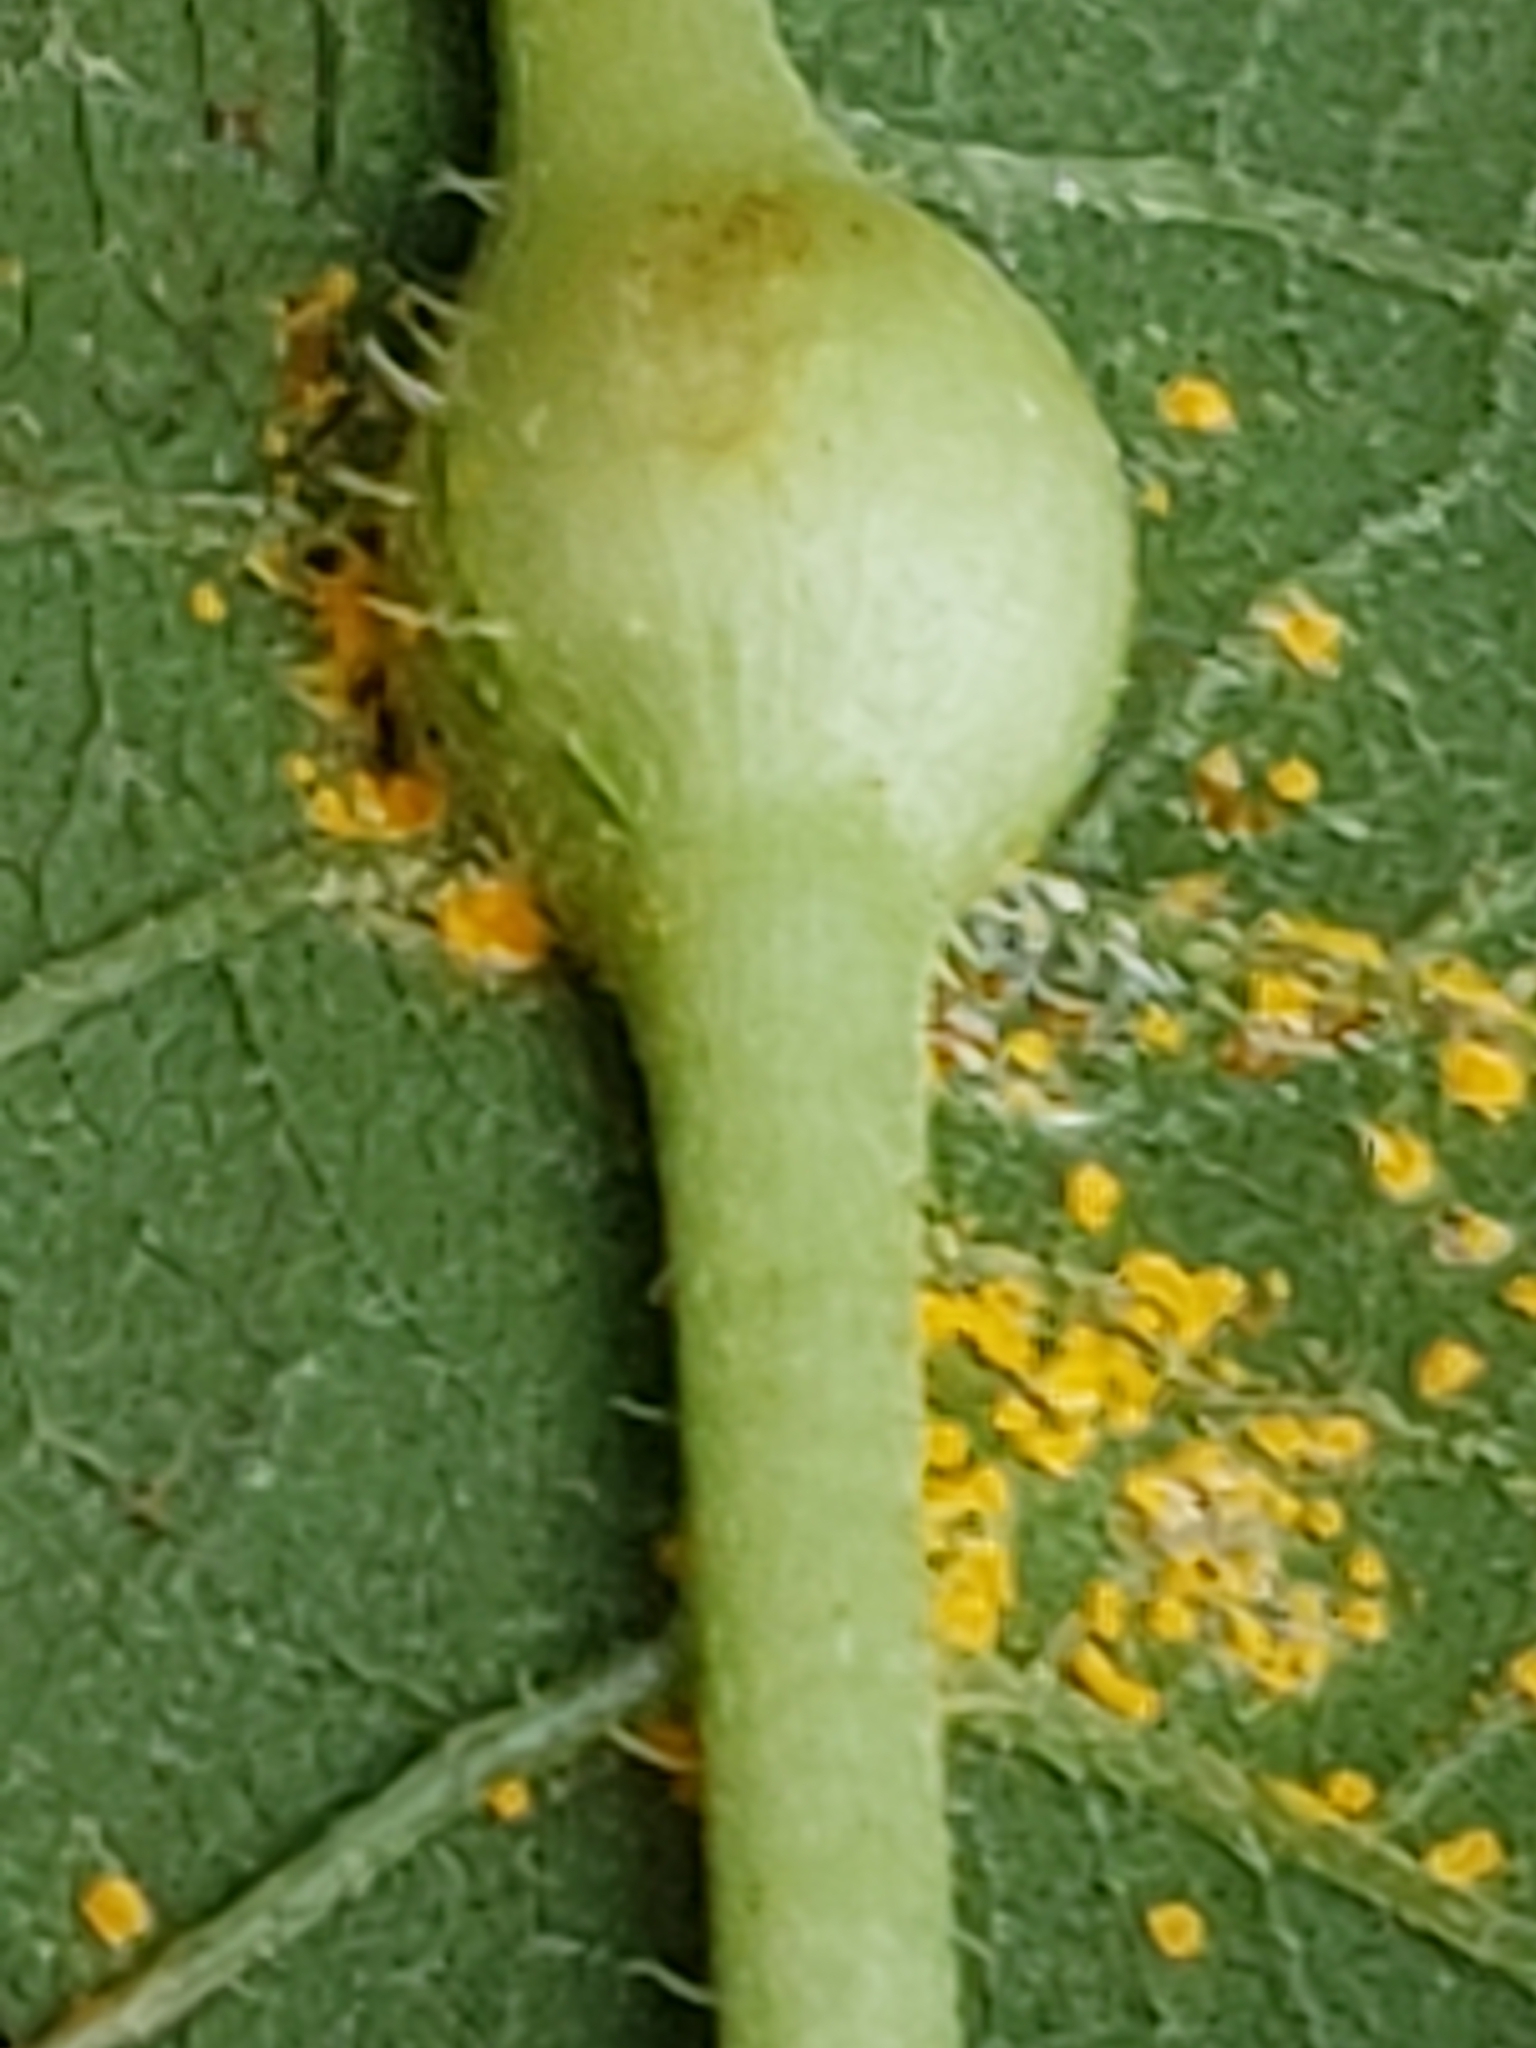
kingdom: Animalia
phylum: Arthropoda
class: Insecta
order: Diptera
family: Cecidomyiidae
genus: Neolasioptera
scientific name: Neolasioptera vernoniae
